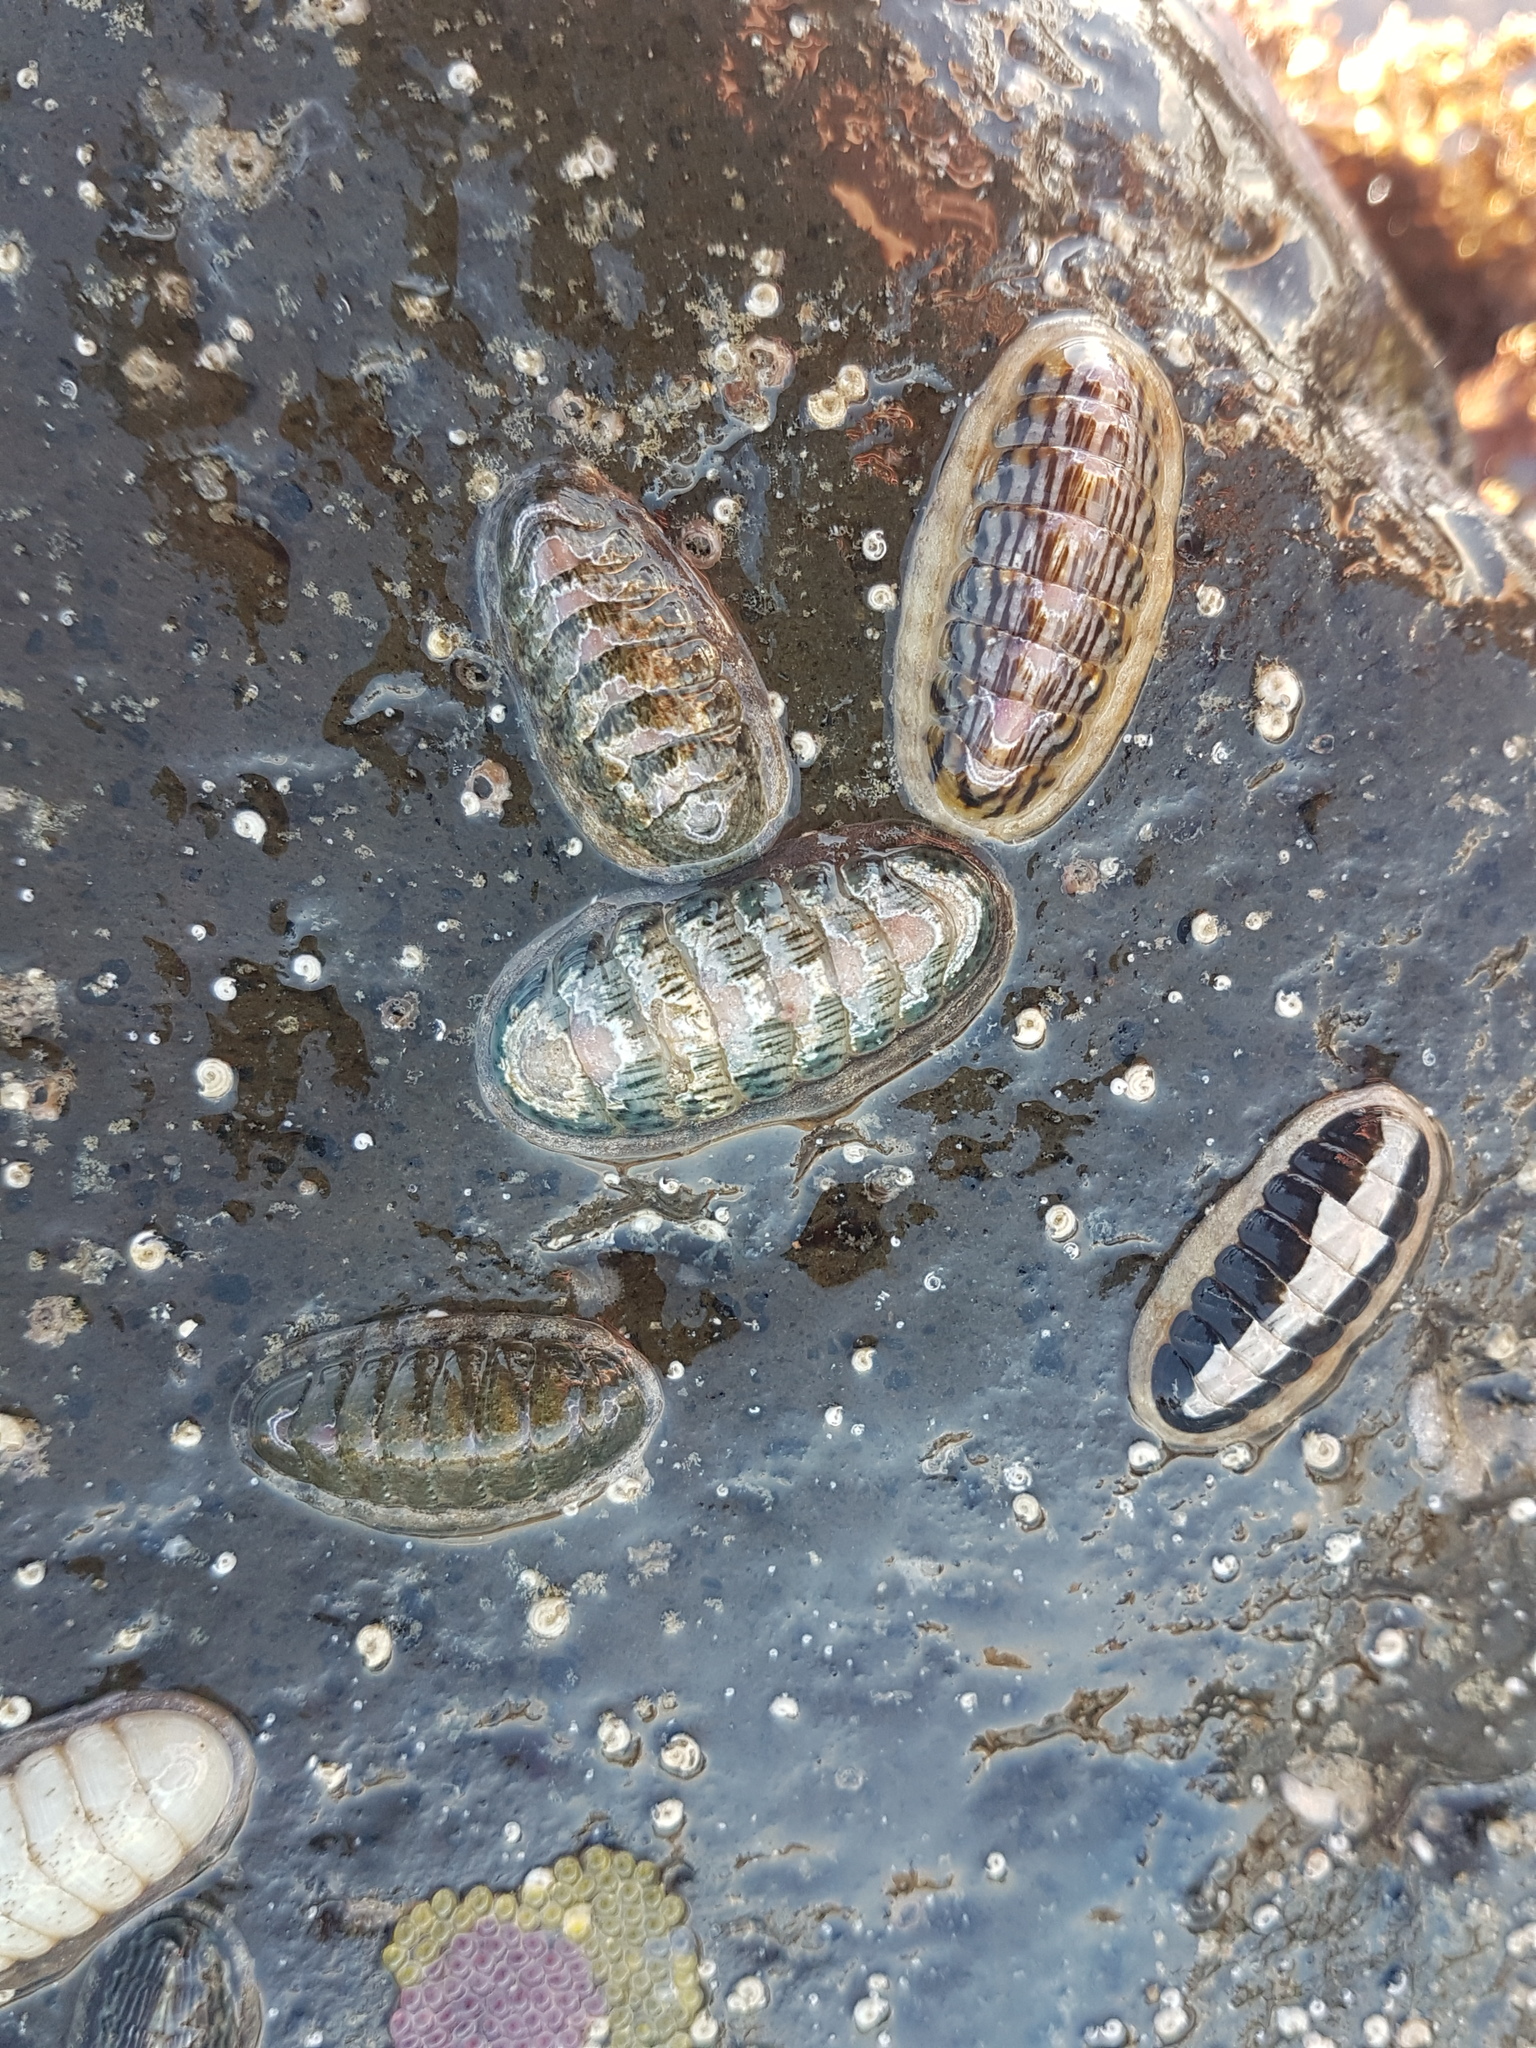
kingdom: Animalia
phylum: Mollusca
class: Polyplacophora
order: Chitonida
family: Ischnochitonidae
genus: Ischnochiton
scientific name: Ischnochiton maorianus
